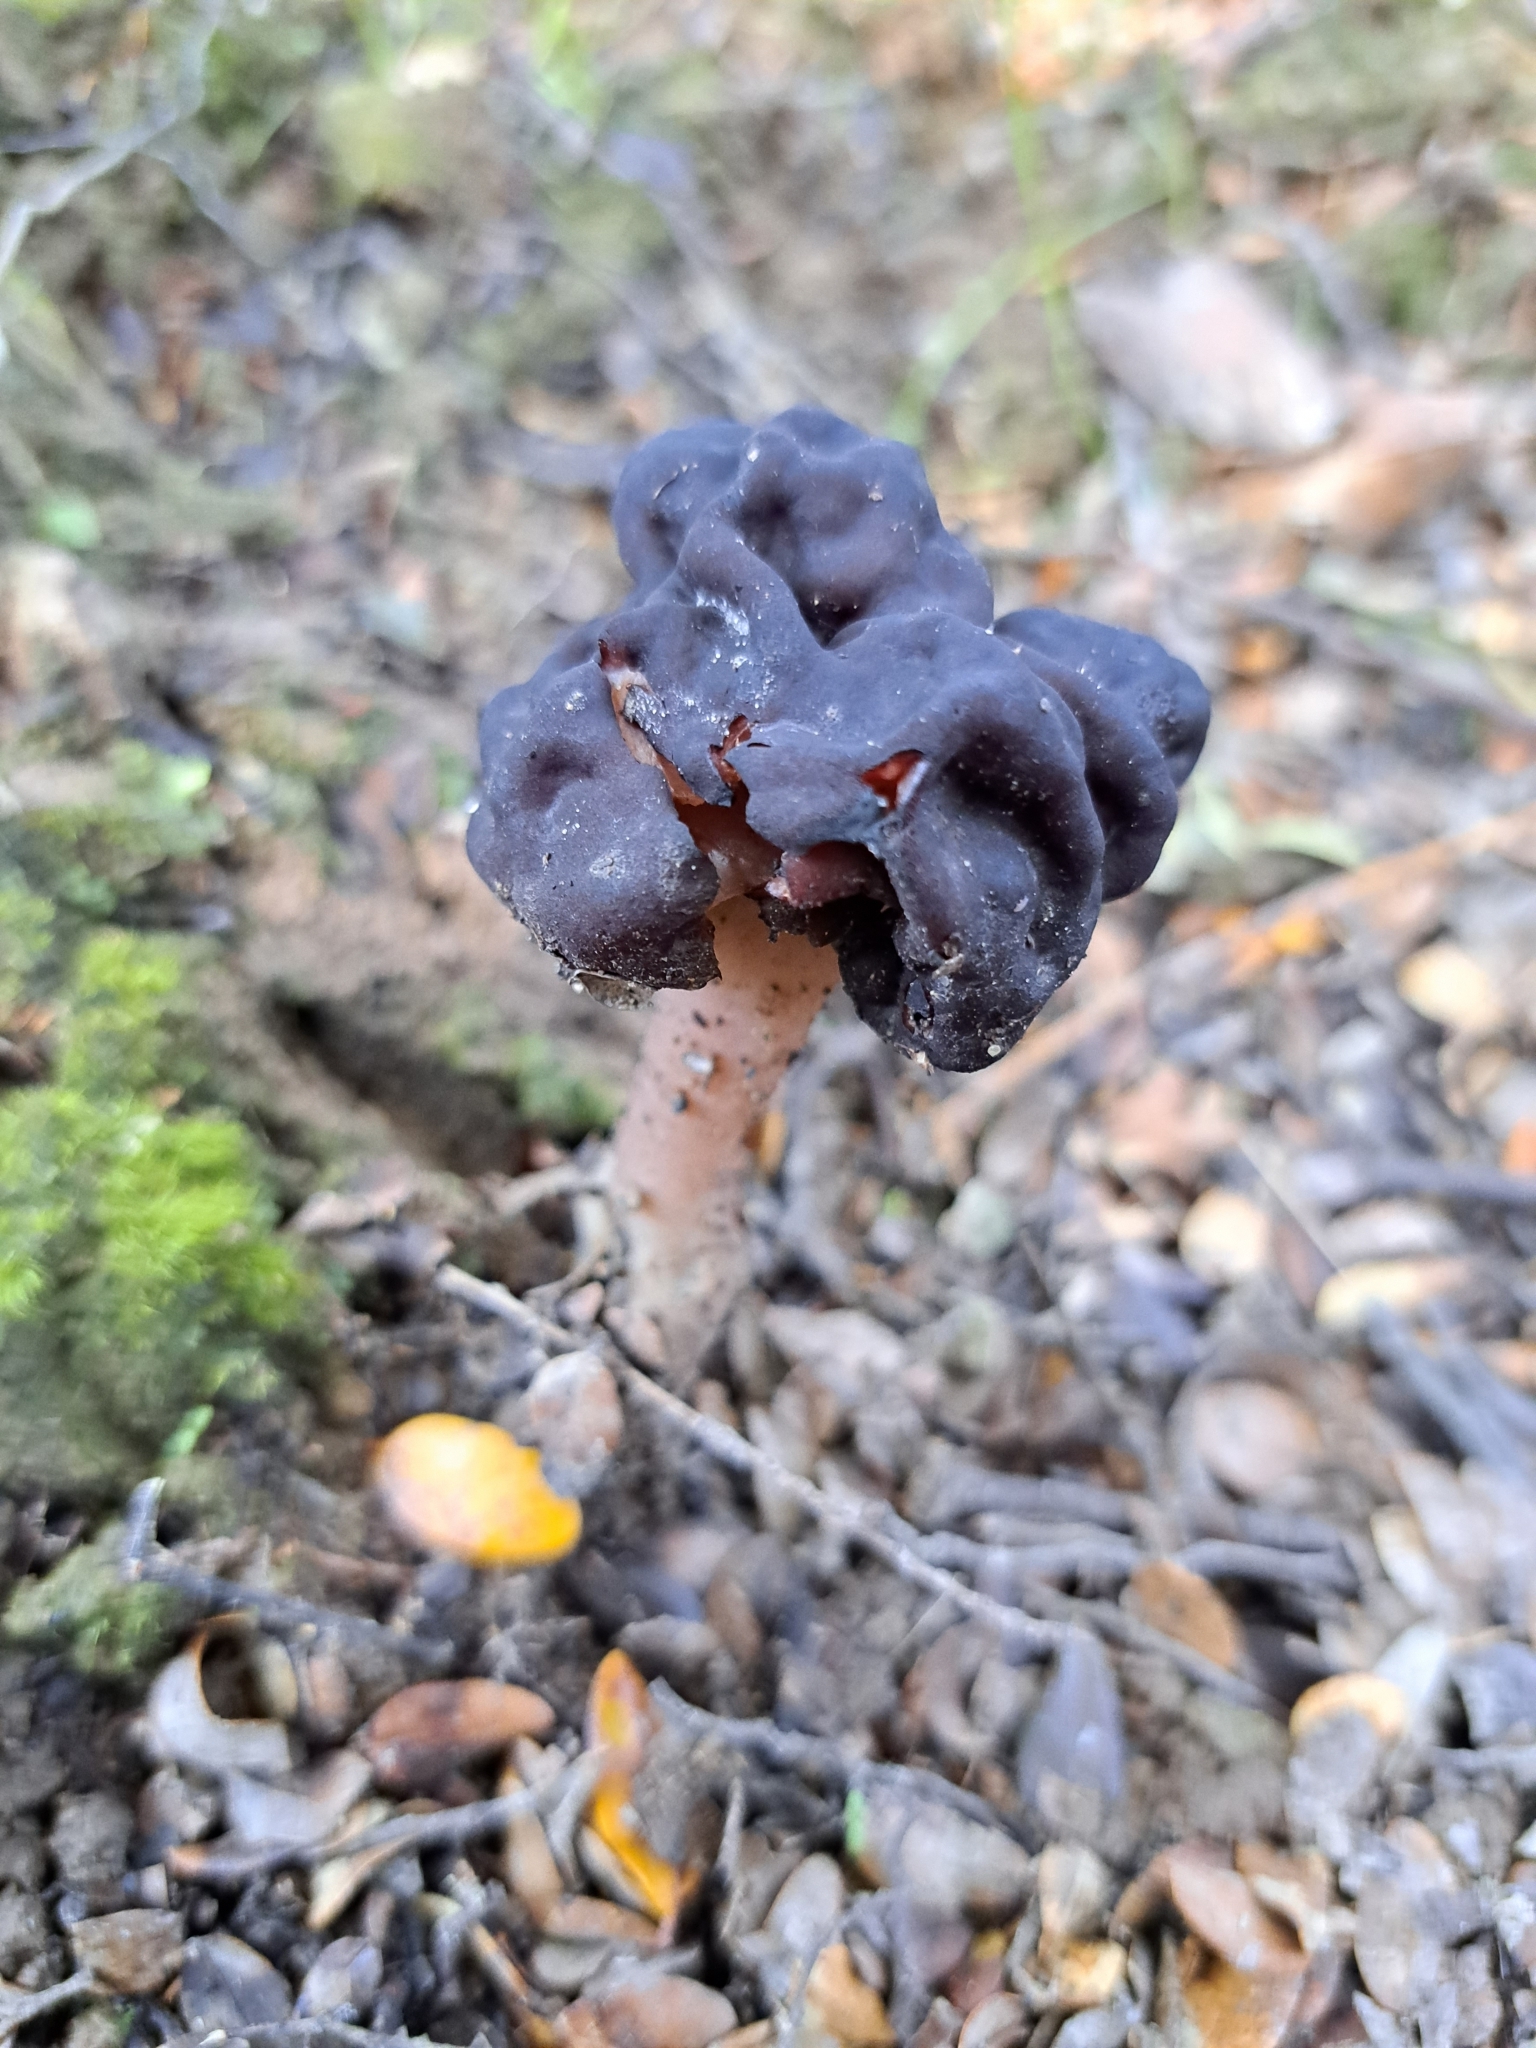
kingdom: Fungi
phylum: Ascomycota
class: Pezizomycetes
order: Pezizales
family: Discinaceae
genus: Gyromitra
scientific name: Gyromitra tasmanica
